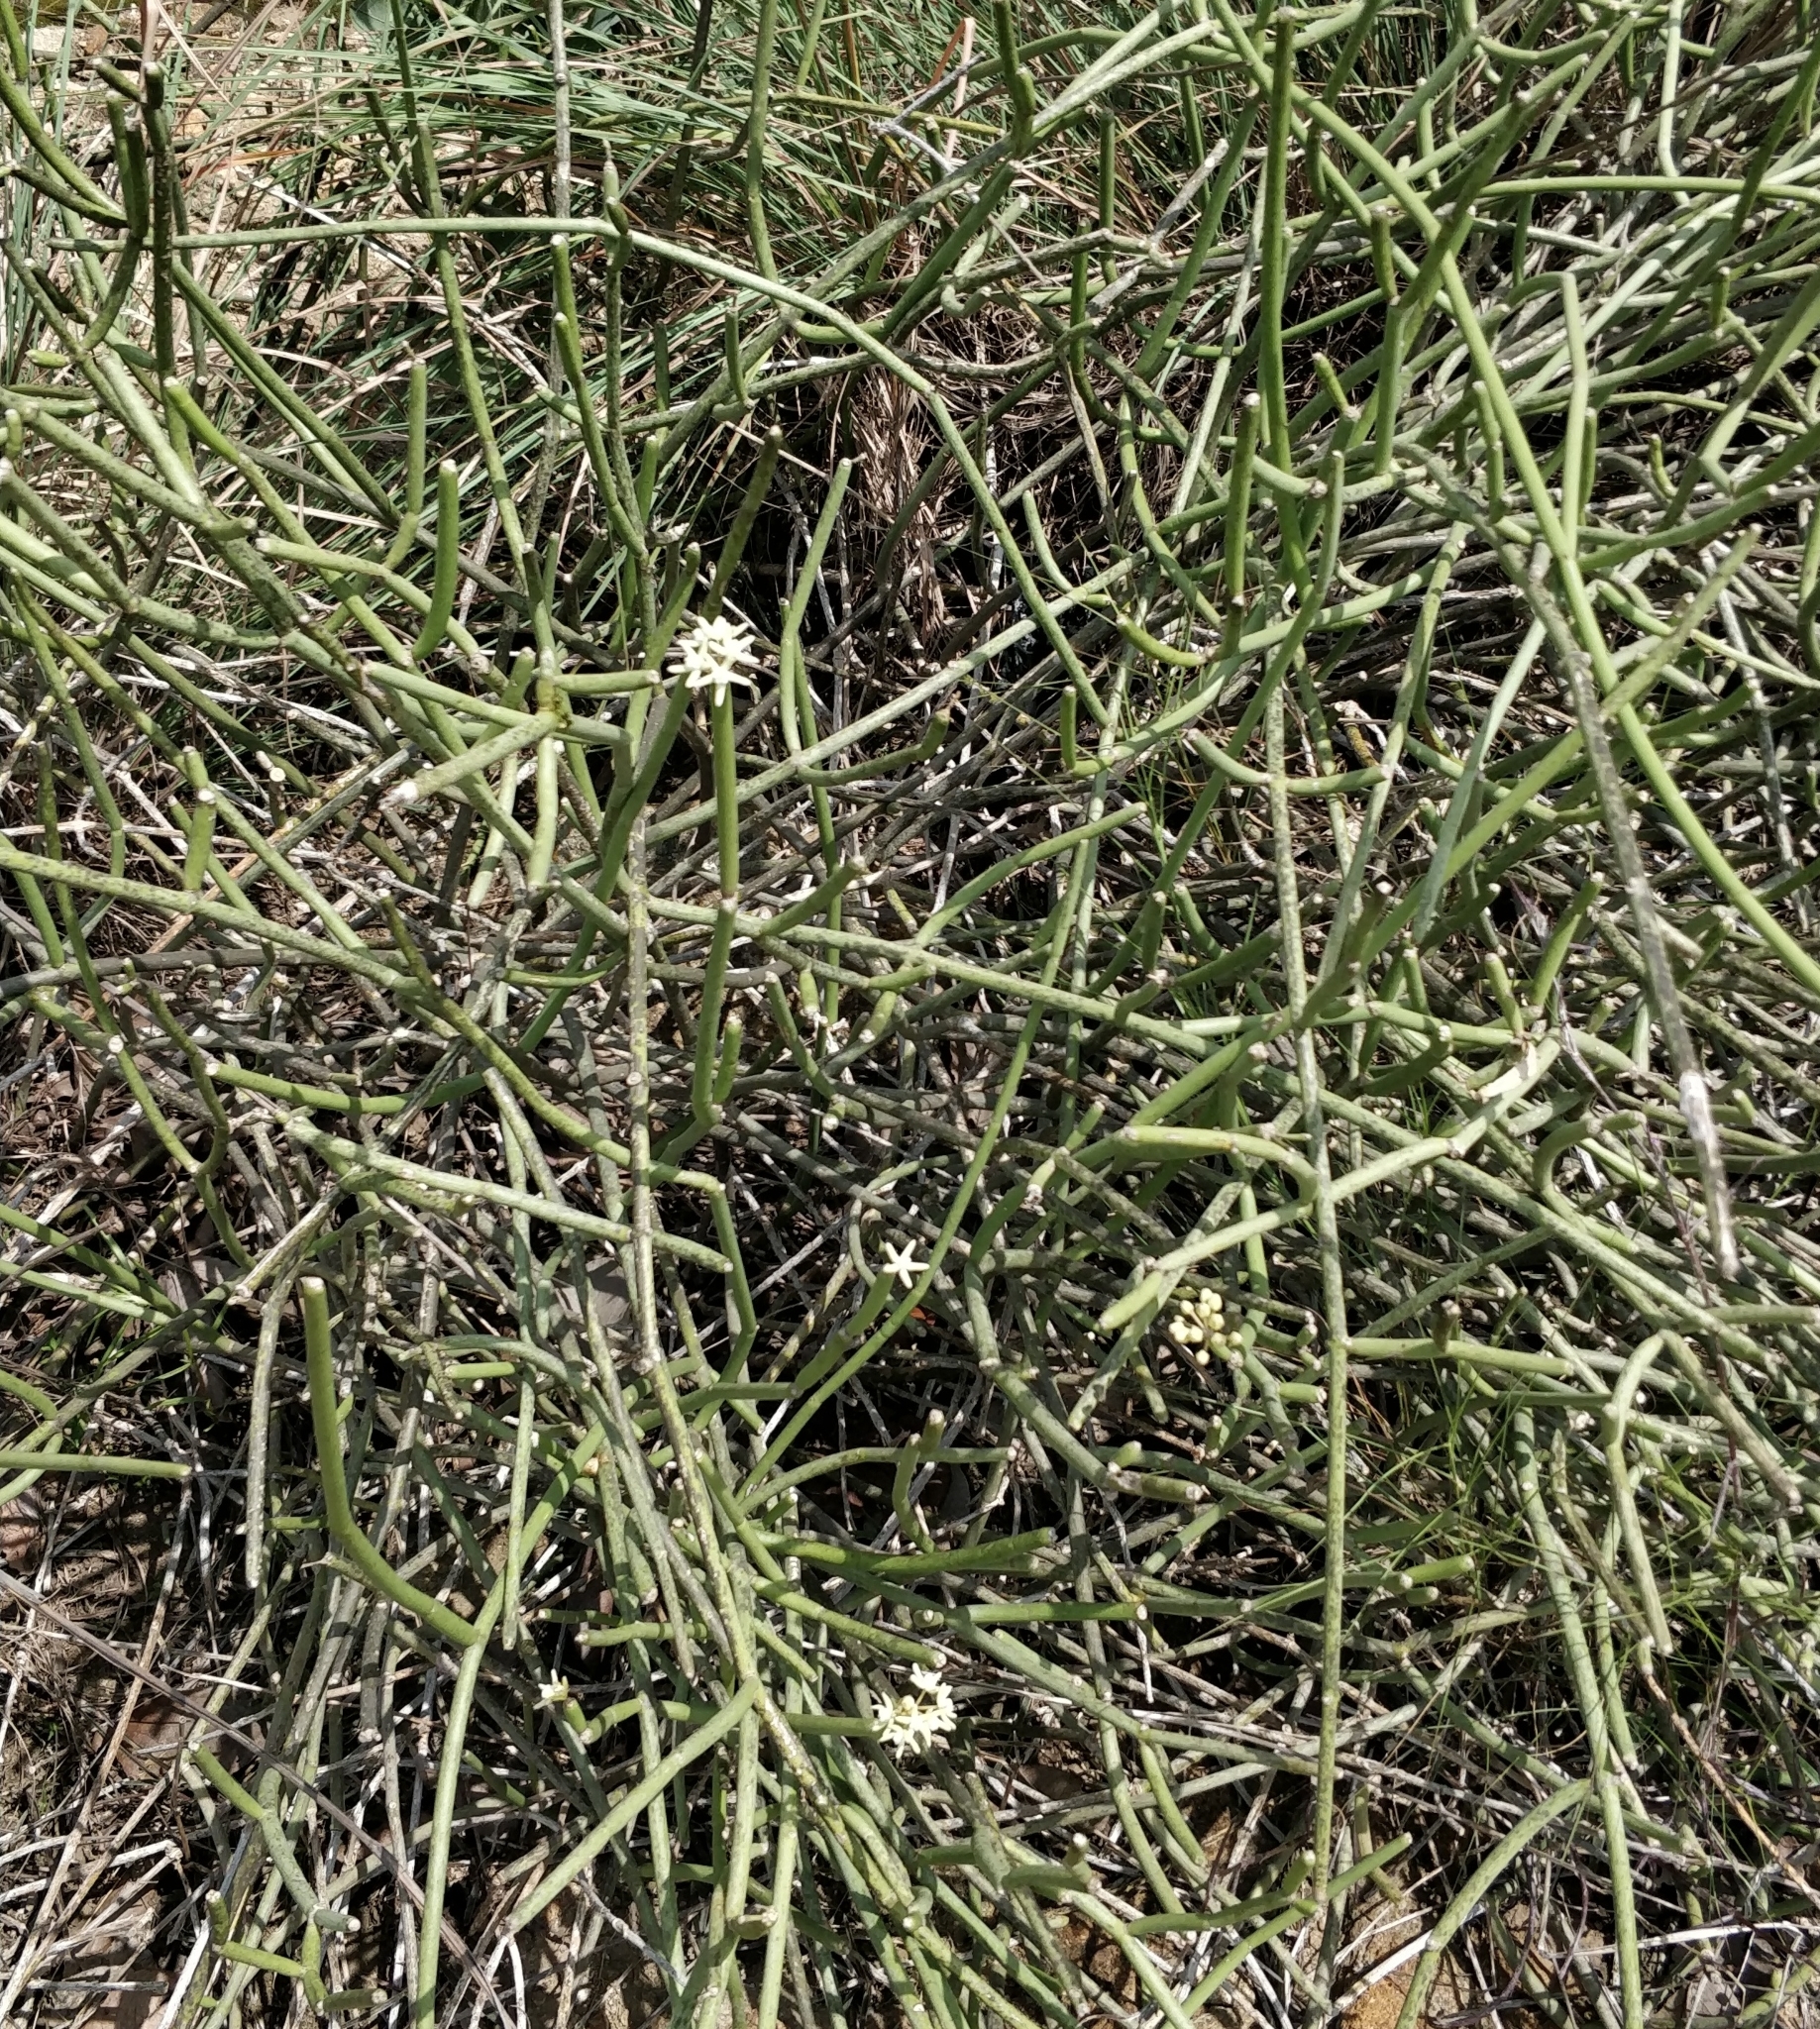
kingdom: Plantae
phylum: Tracheophyta
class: Magnoliopsida
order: Gentianales
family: Apocynaceae
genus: Cynanchum
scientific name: Cynanchum acidum
